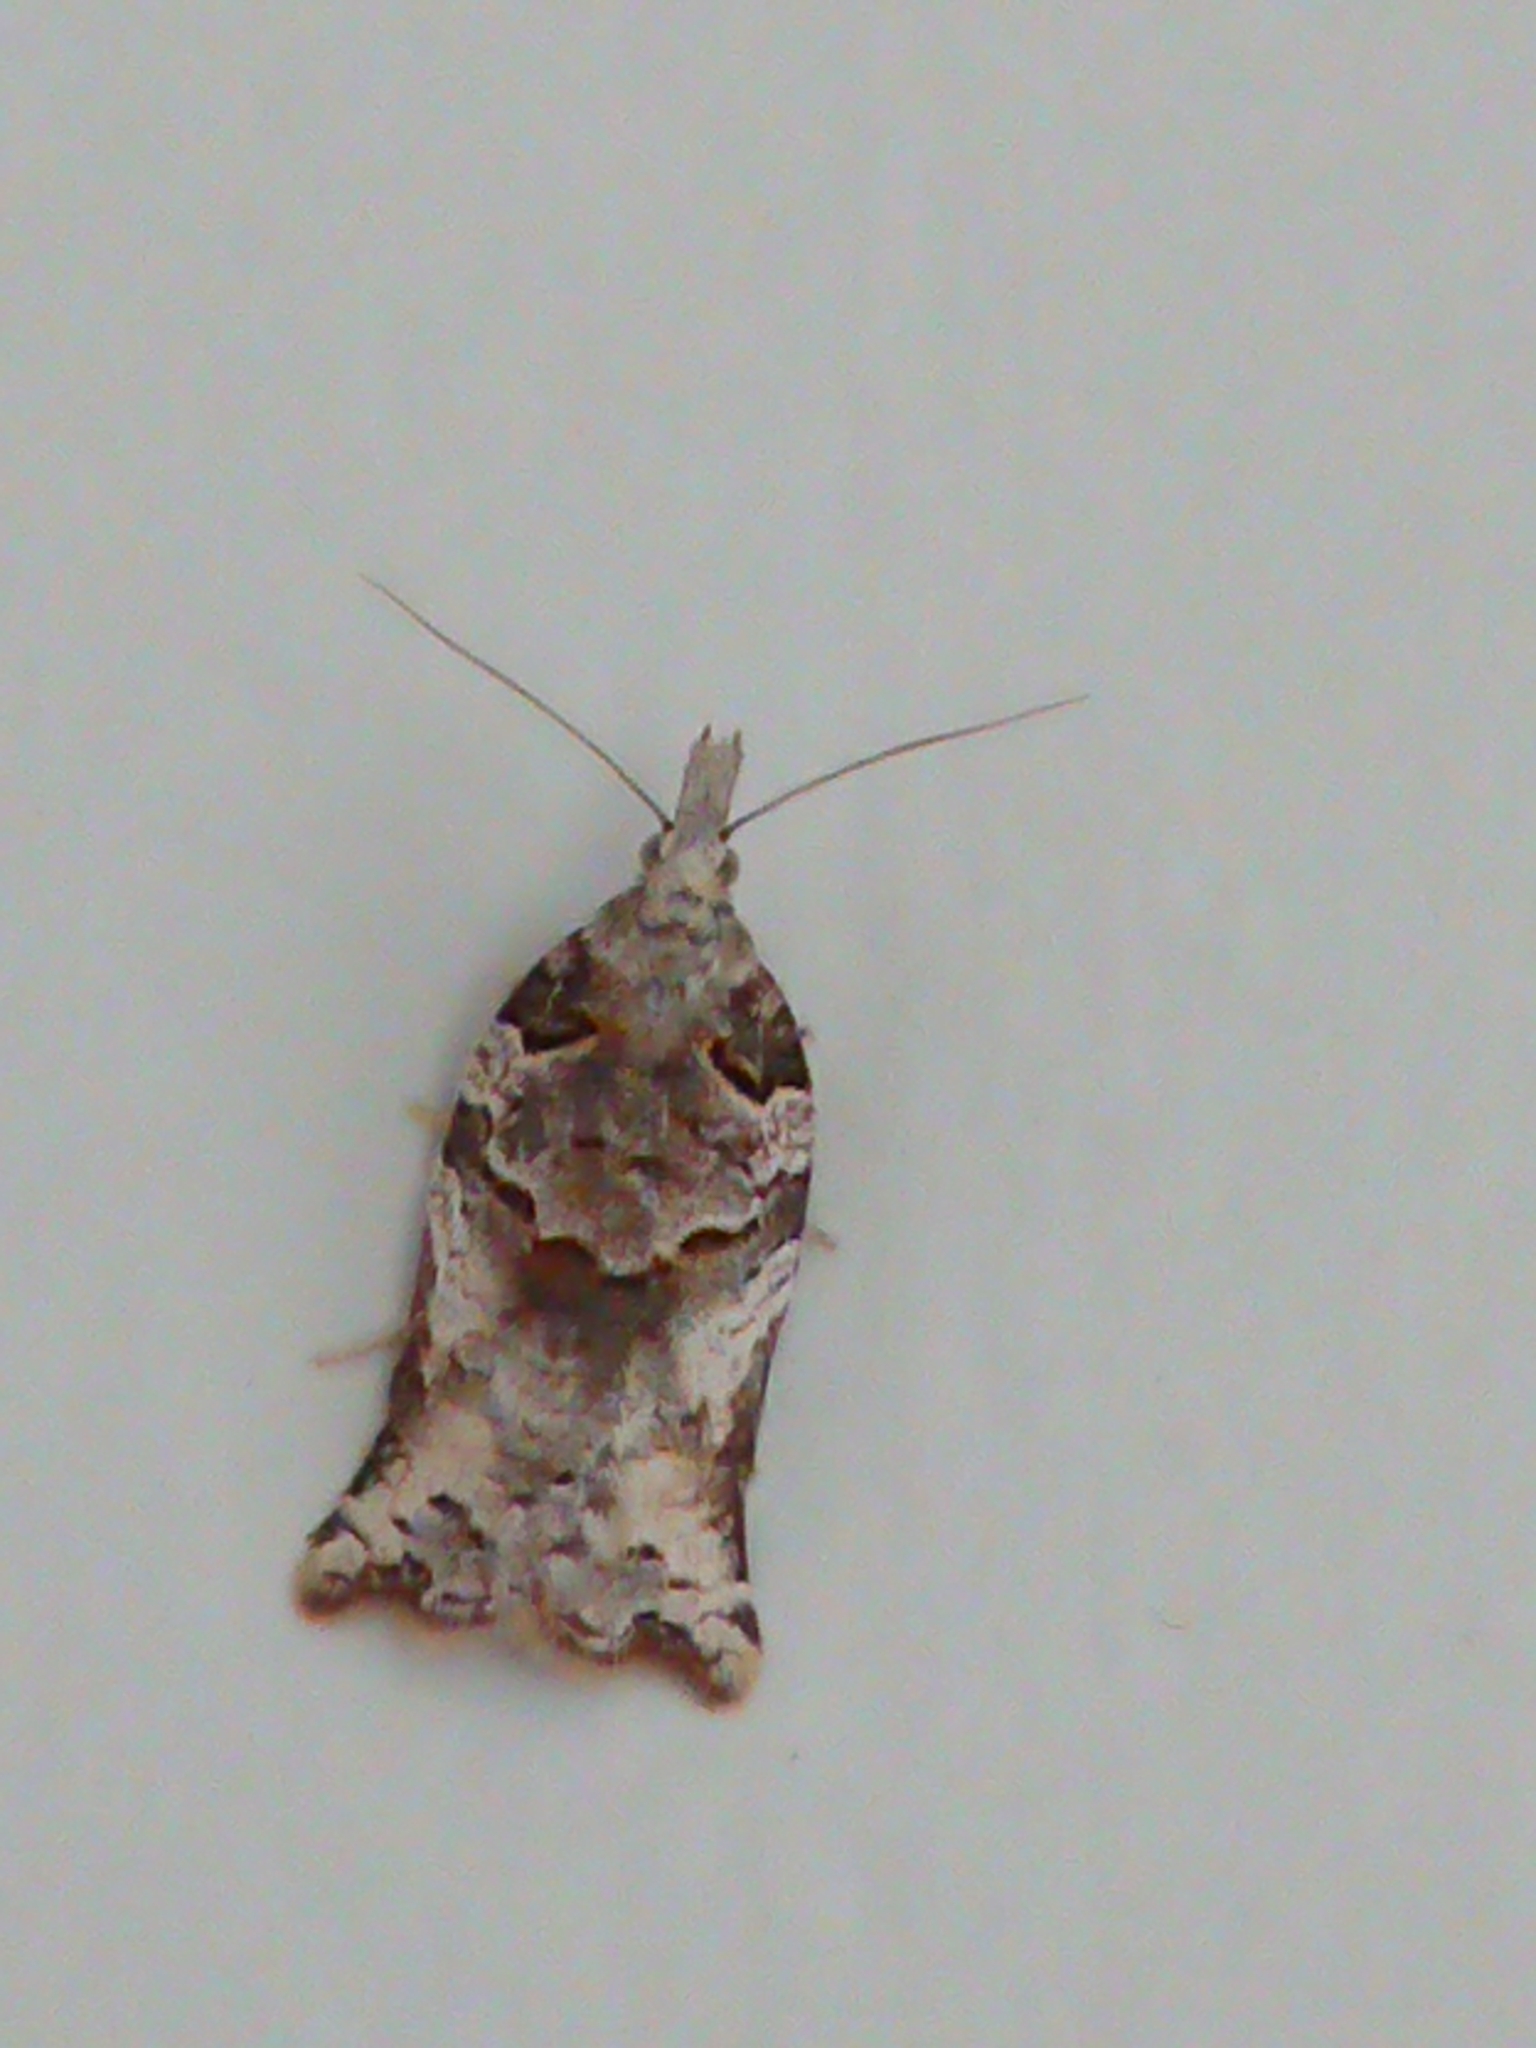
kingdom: Animalia
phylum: Arthropoda
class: Insecta
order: Lepidoptera
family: Tortricidae
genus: Harmologa
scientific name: Harmologa amplexana
